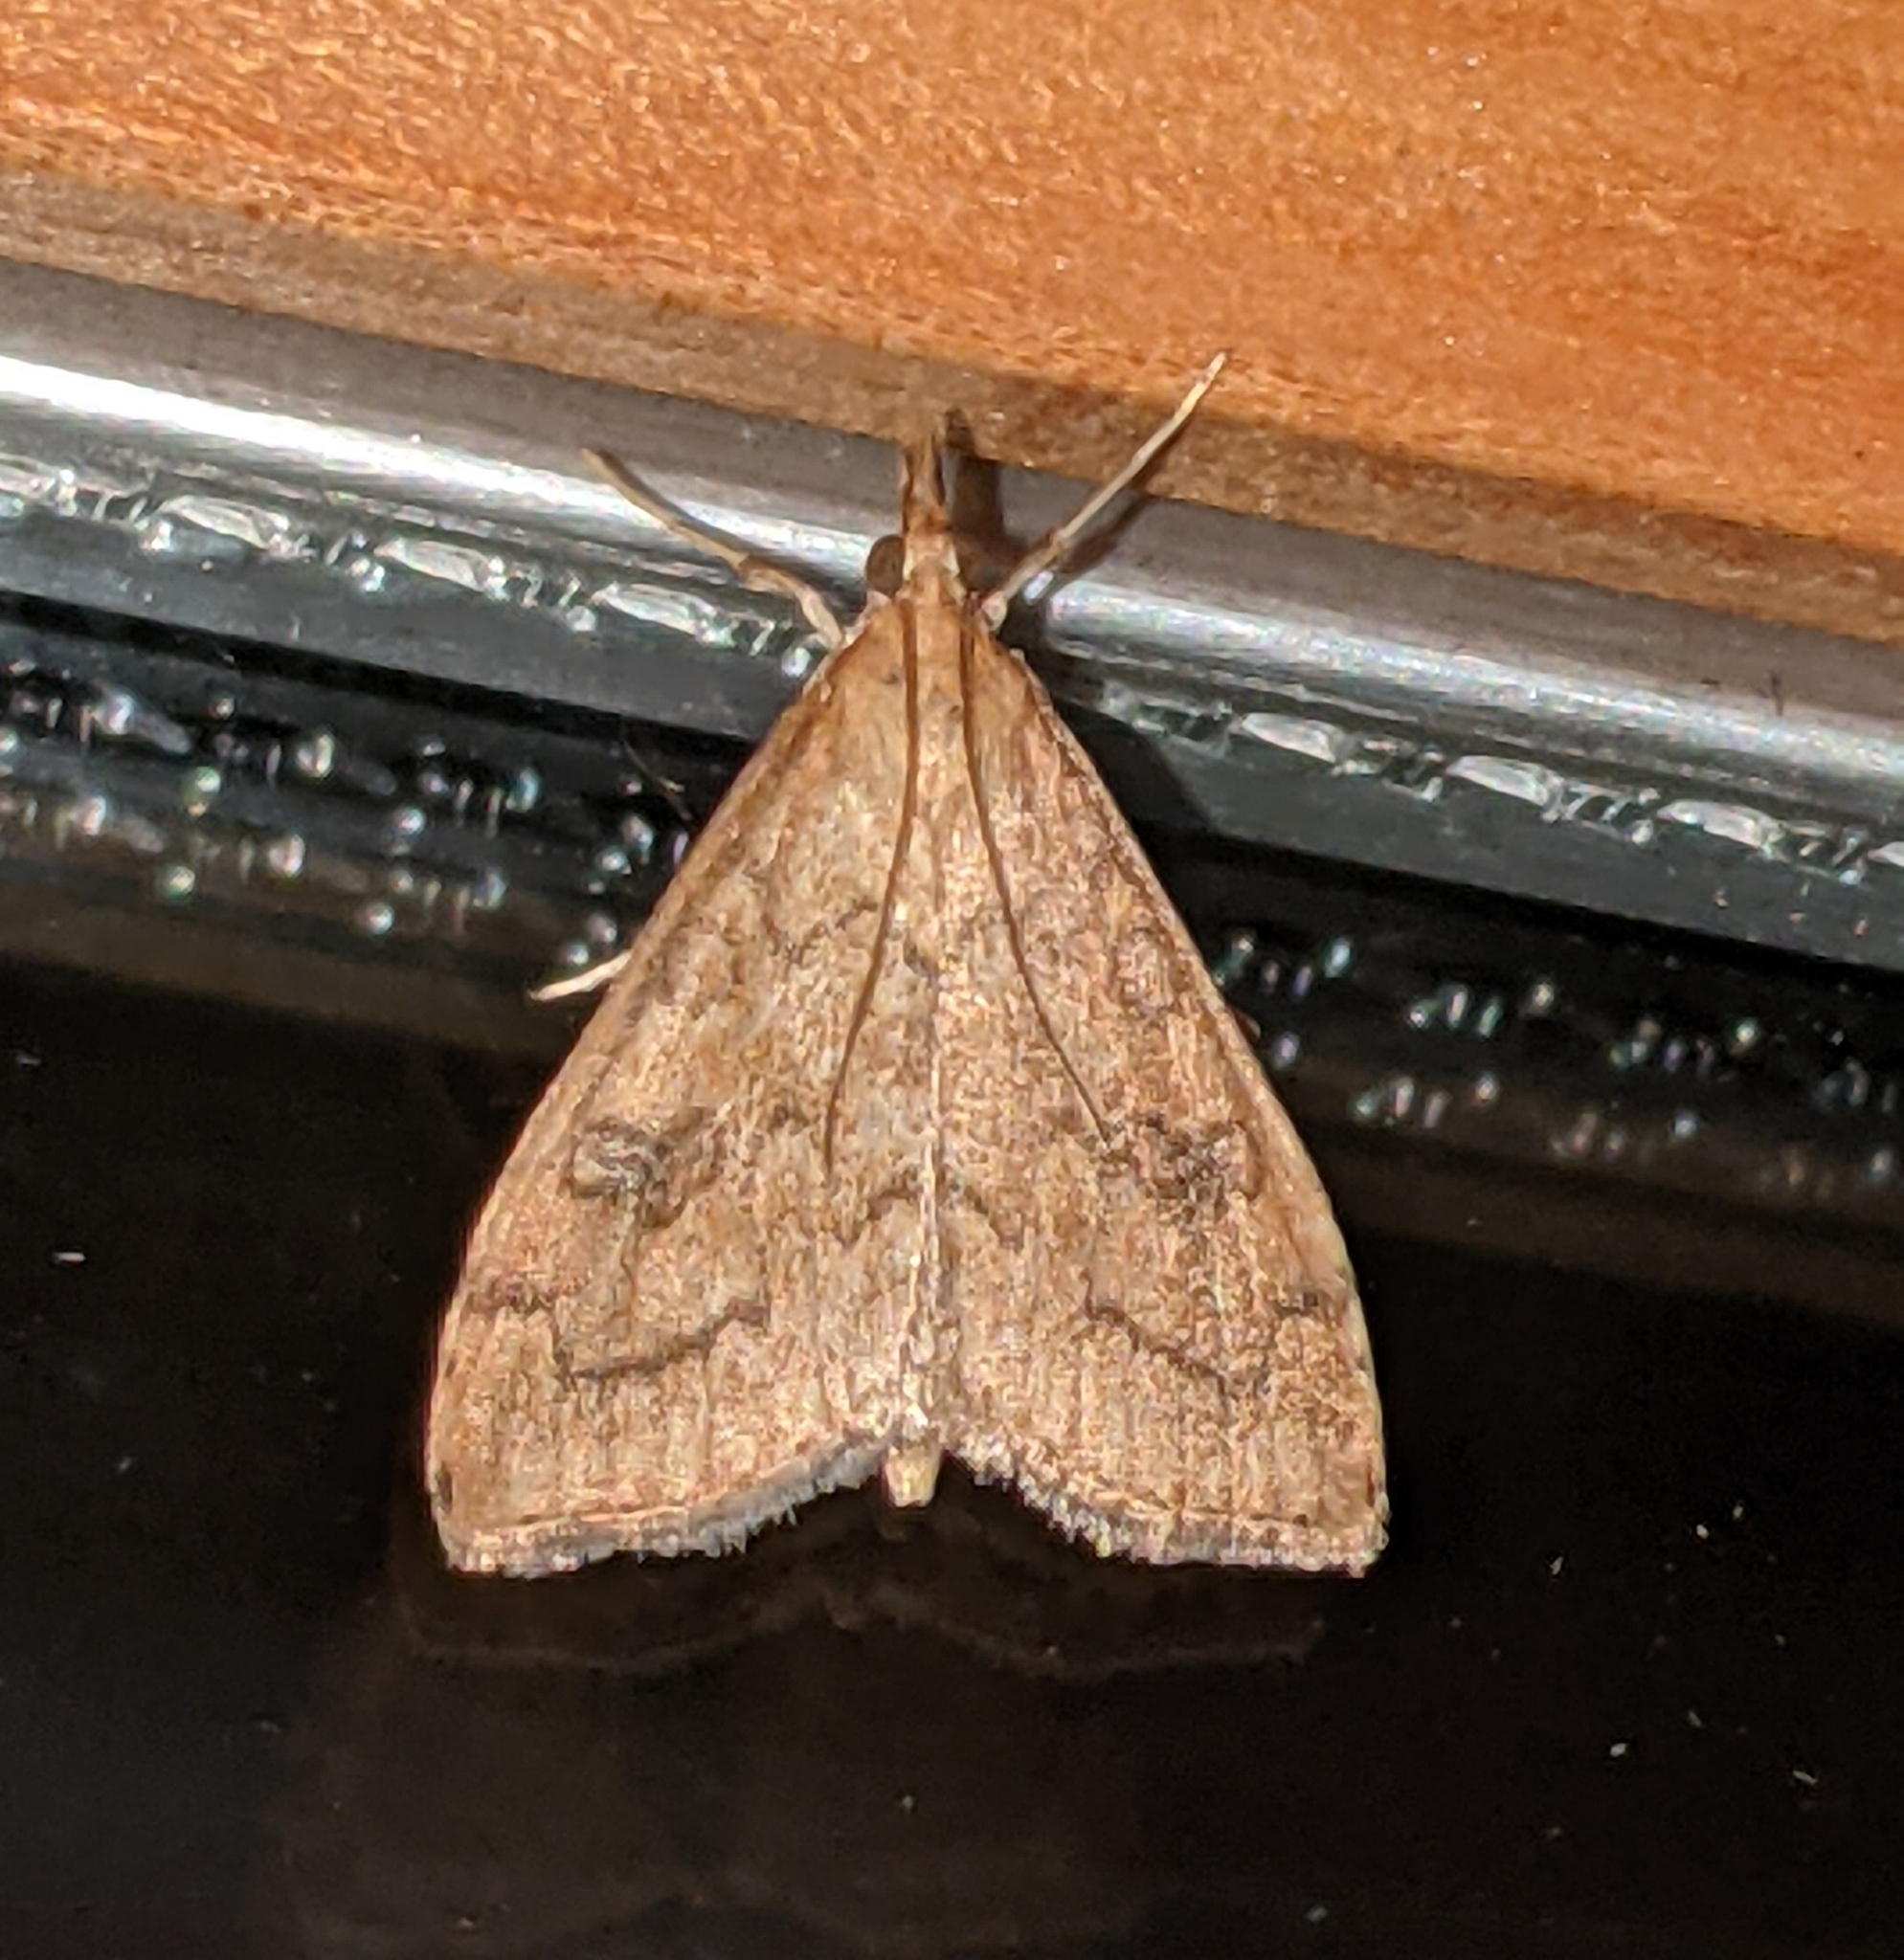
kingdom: Animalia
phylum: Arthropoda
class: Insecta
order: Lepidoptera
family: Crambidae
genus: Udea
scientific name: Udea profundalis
